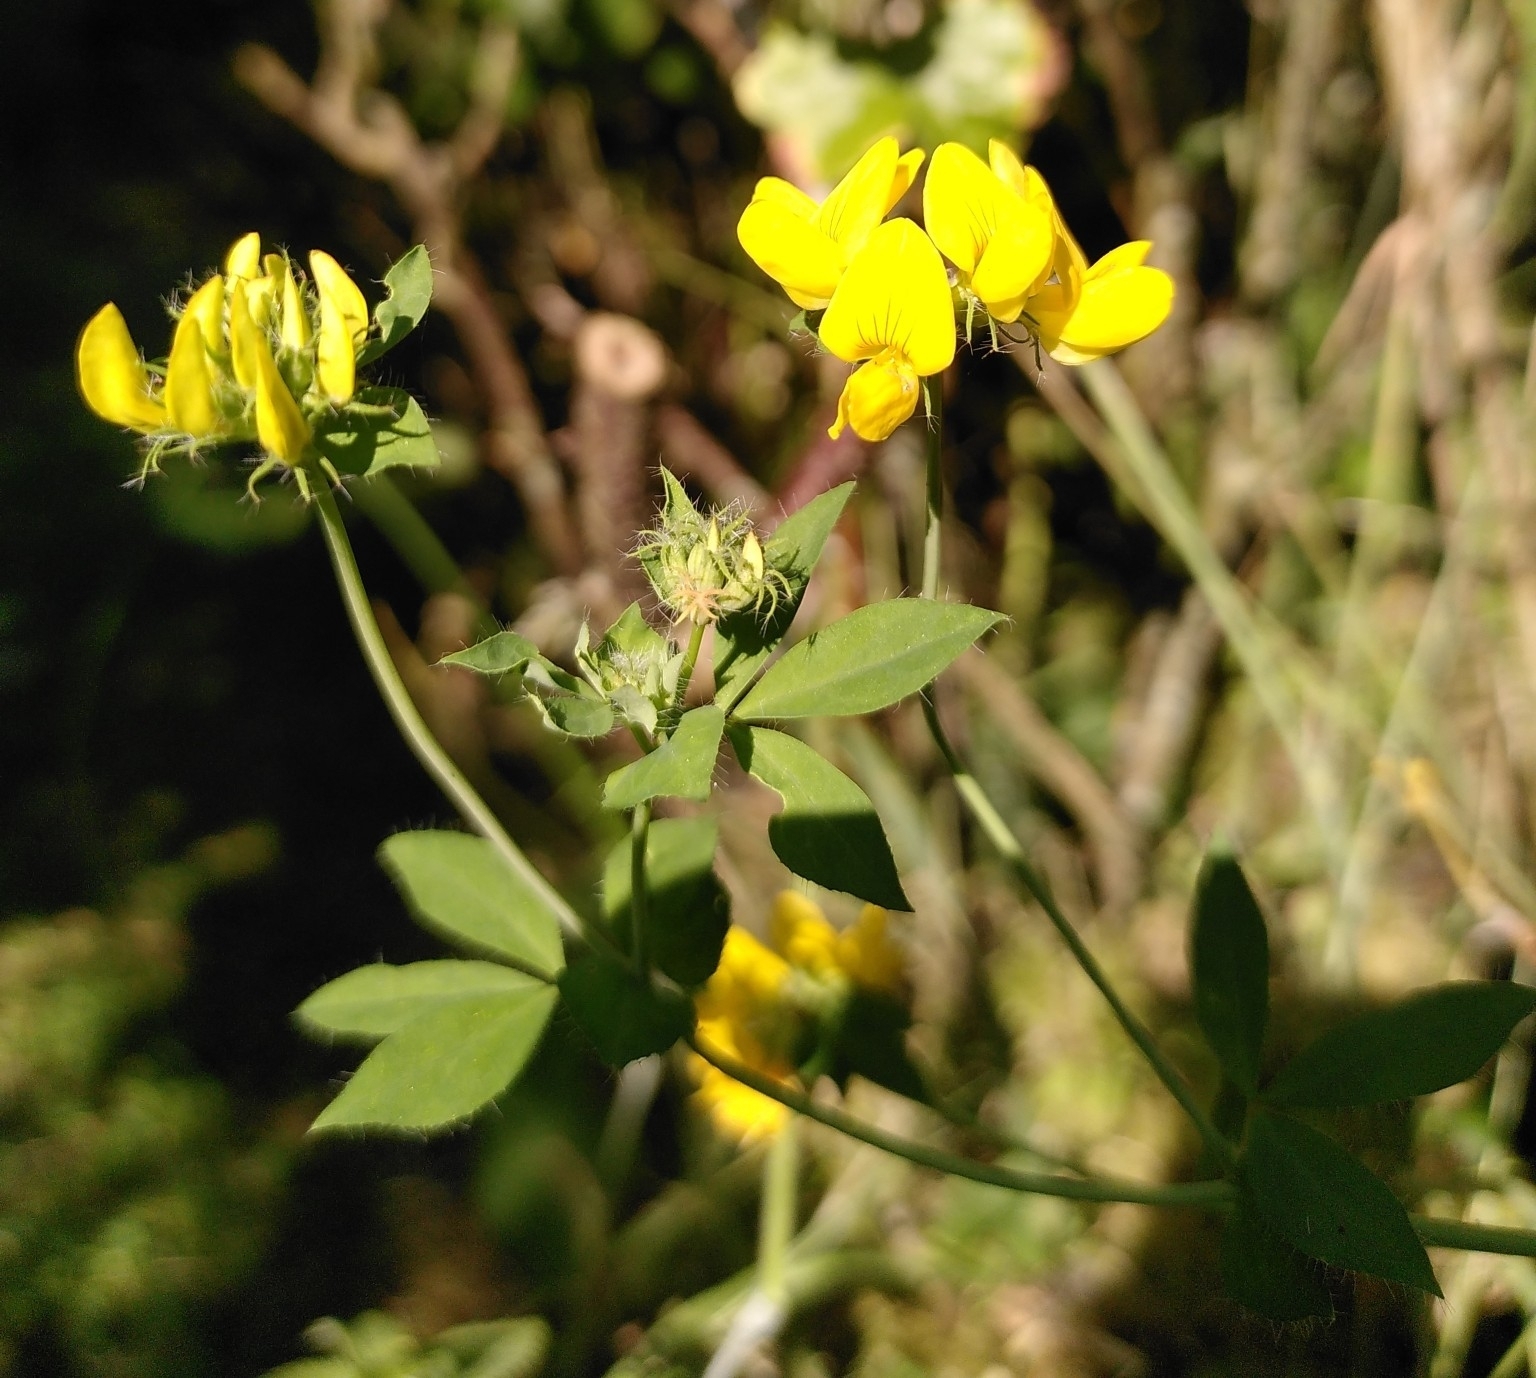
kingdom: Plantae
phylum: Tracheophyta
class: Magnoliopsida
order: Fabales
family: Fabaceae
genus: Lotus
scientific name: Lotus pedunculatus
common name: Greater birdsfoot-trefoil
